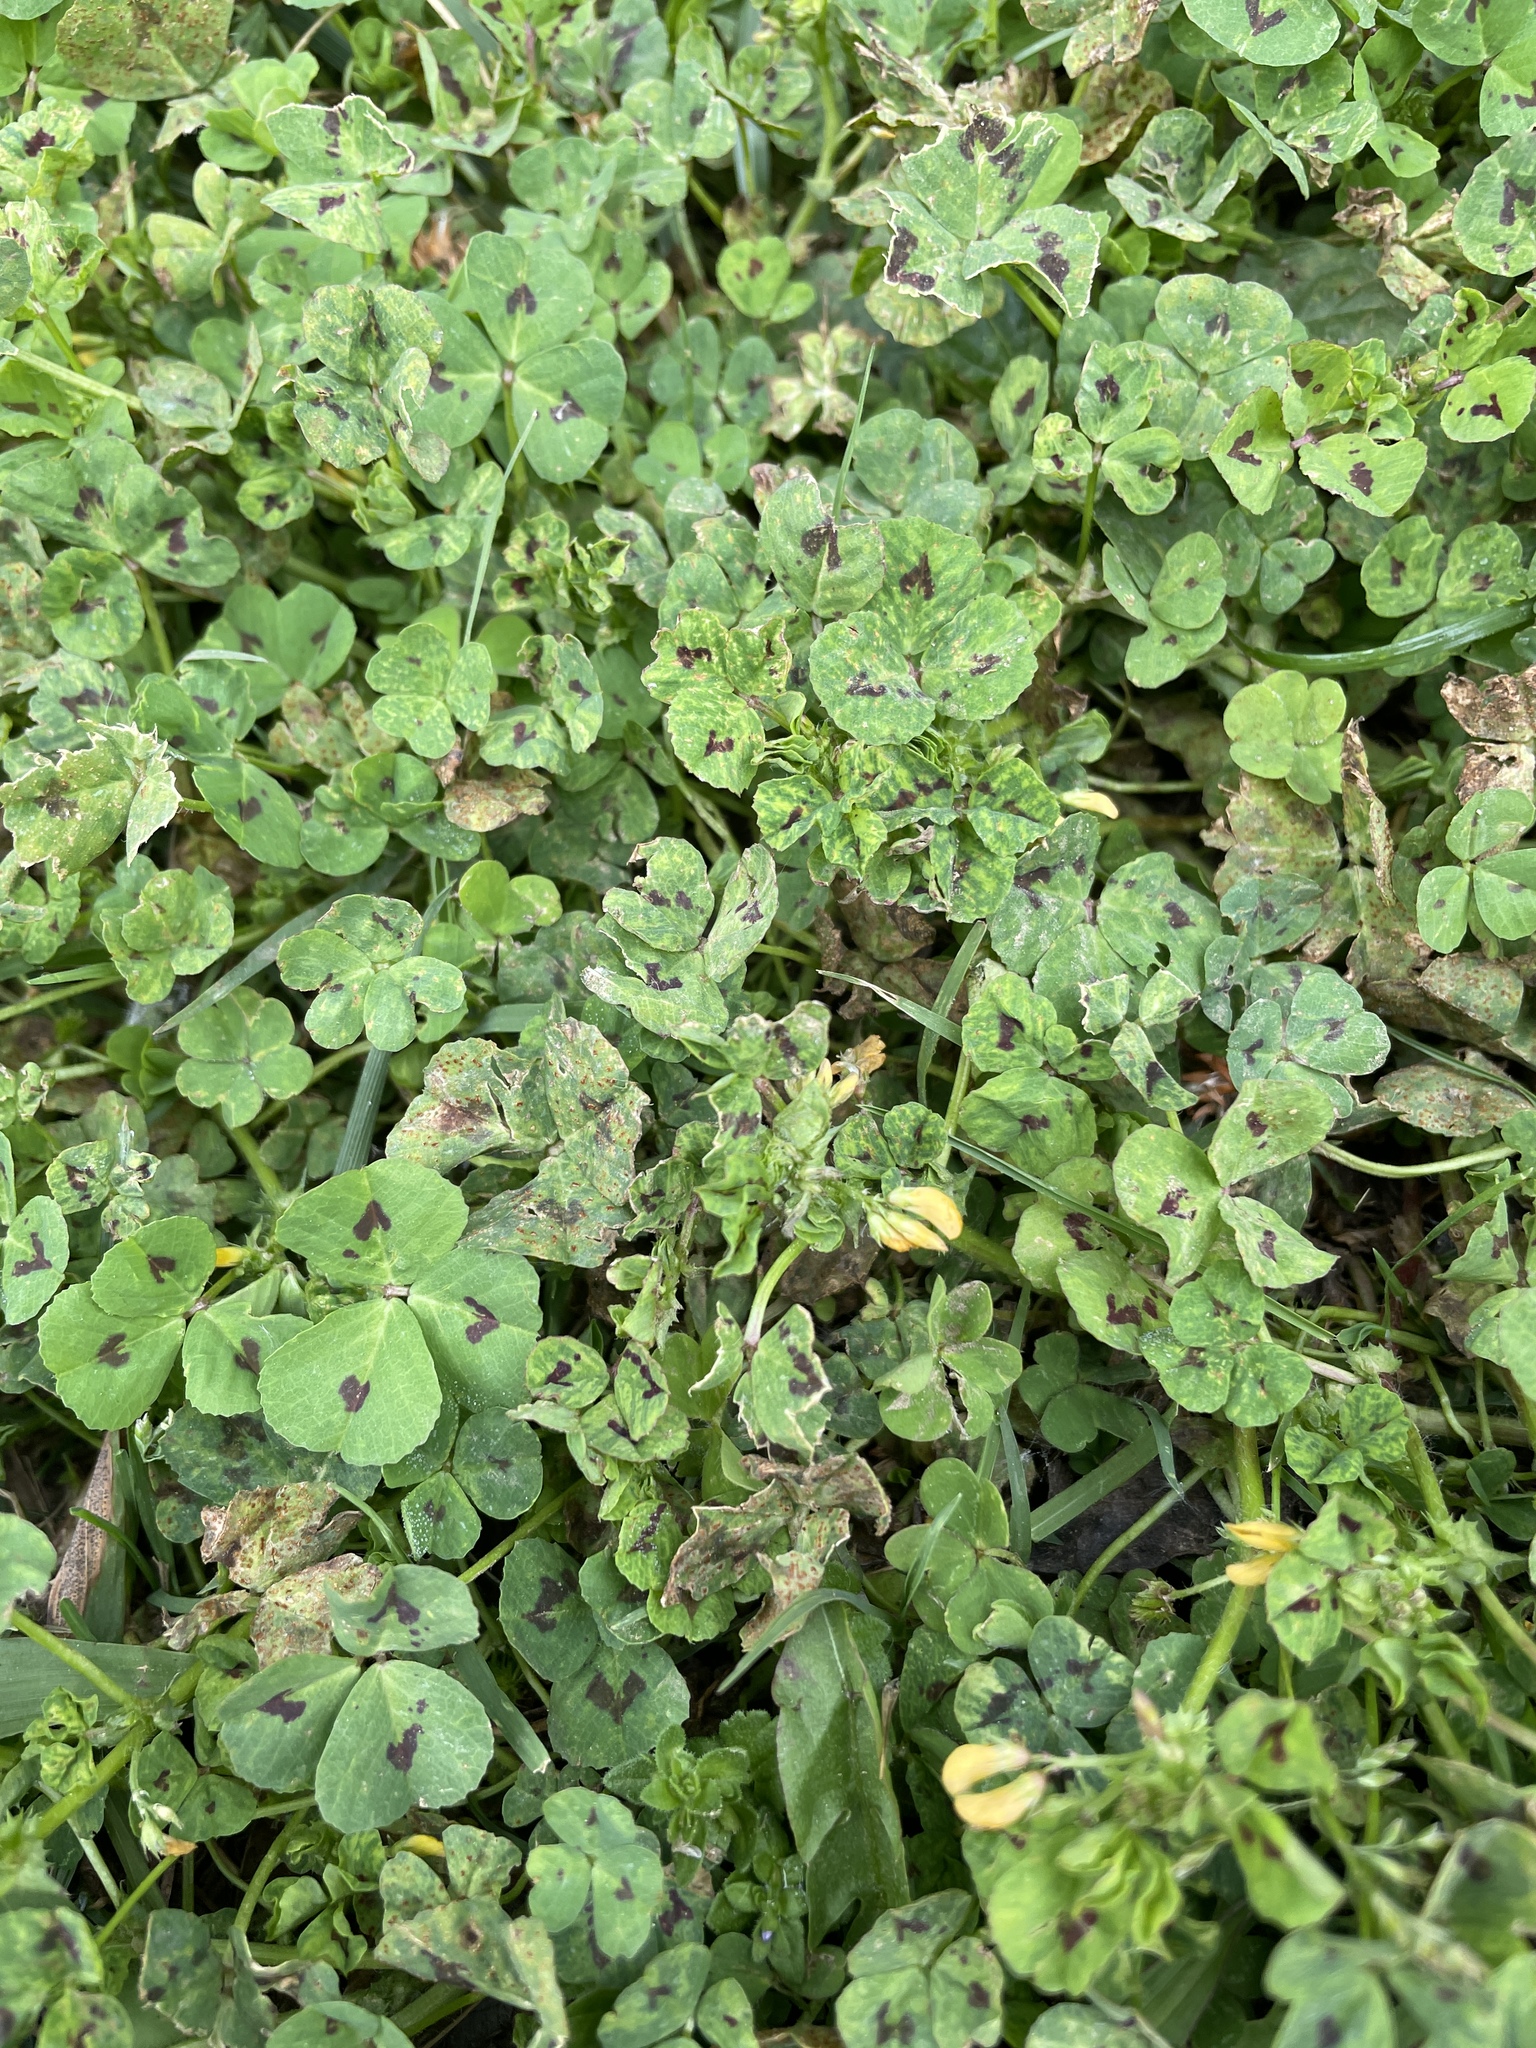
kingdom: Plantae
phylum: Tracheophyta
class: Magnoliopsida
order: Fabales
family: Fabaceae
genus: Medicago
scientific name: Medicago arabica
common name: Spotted medick
